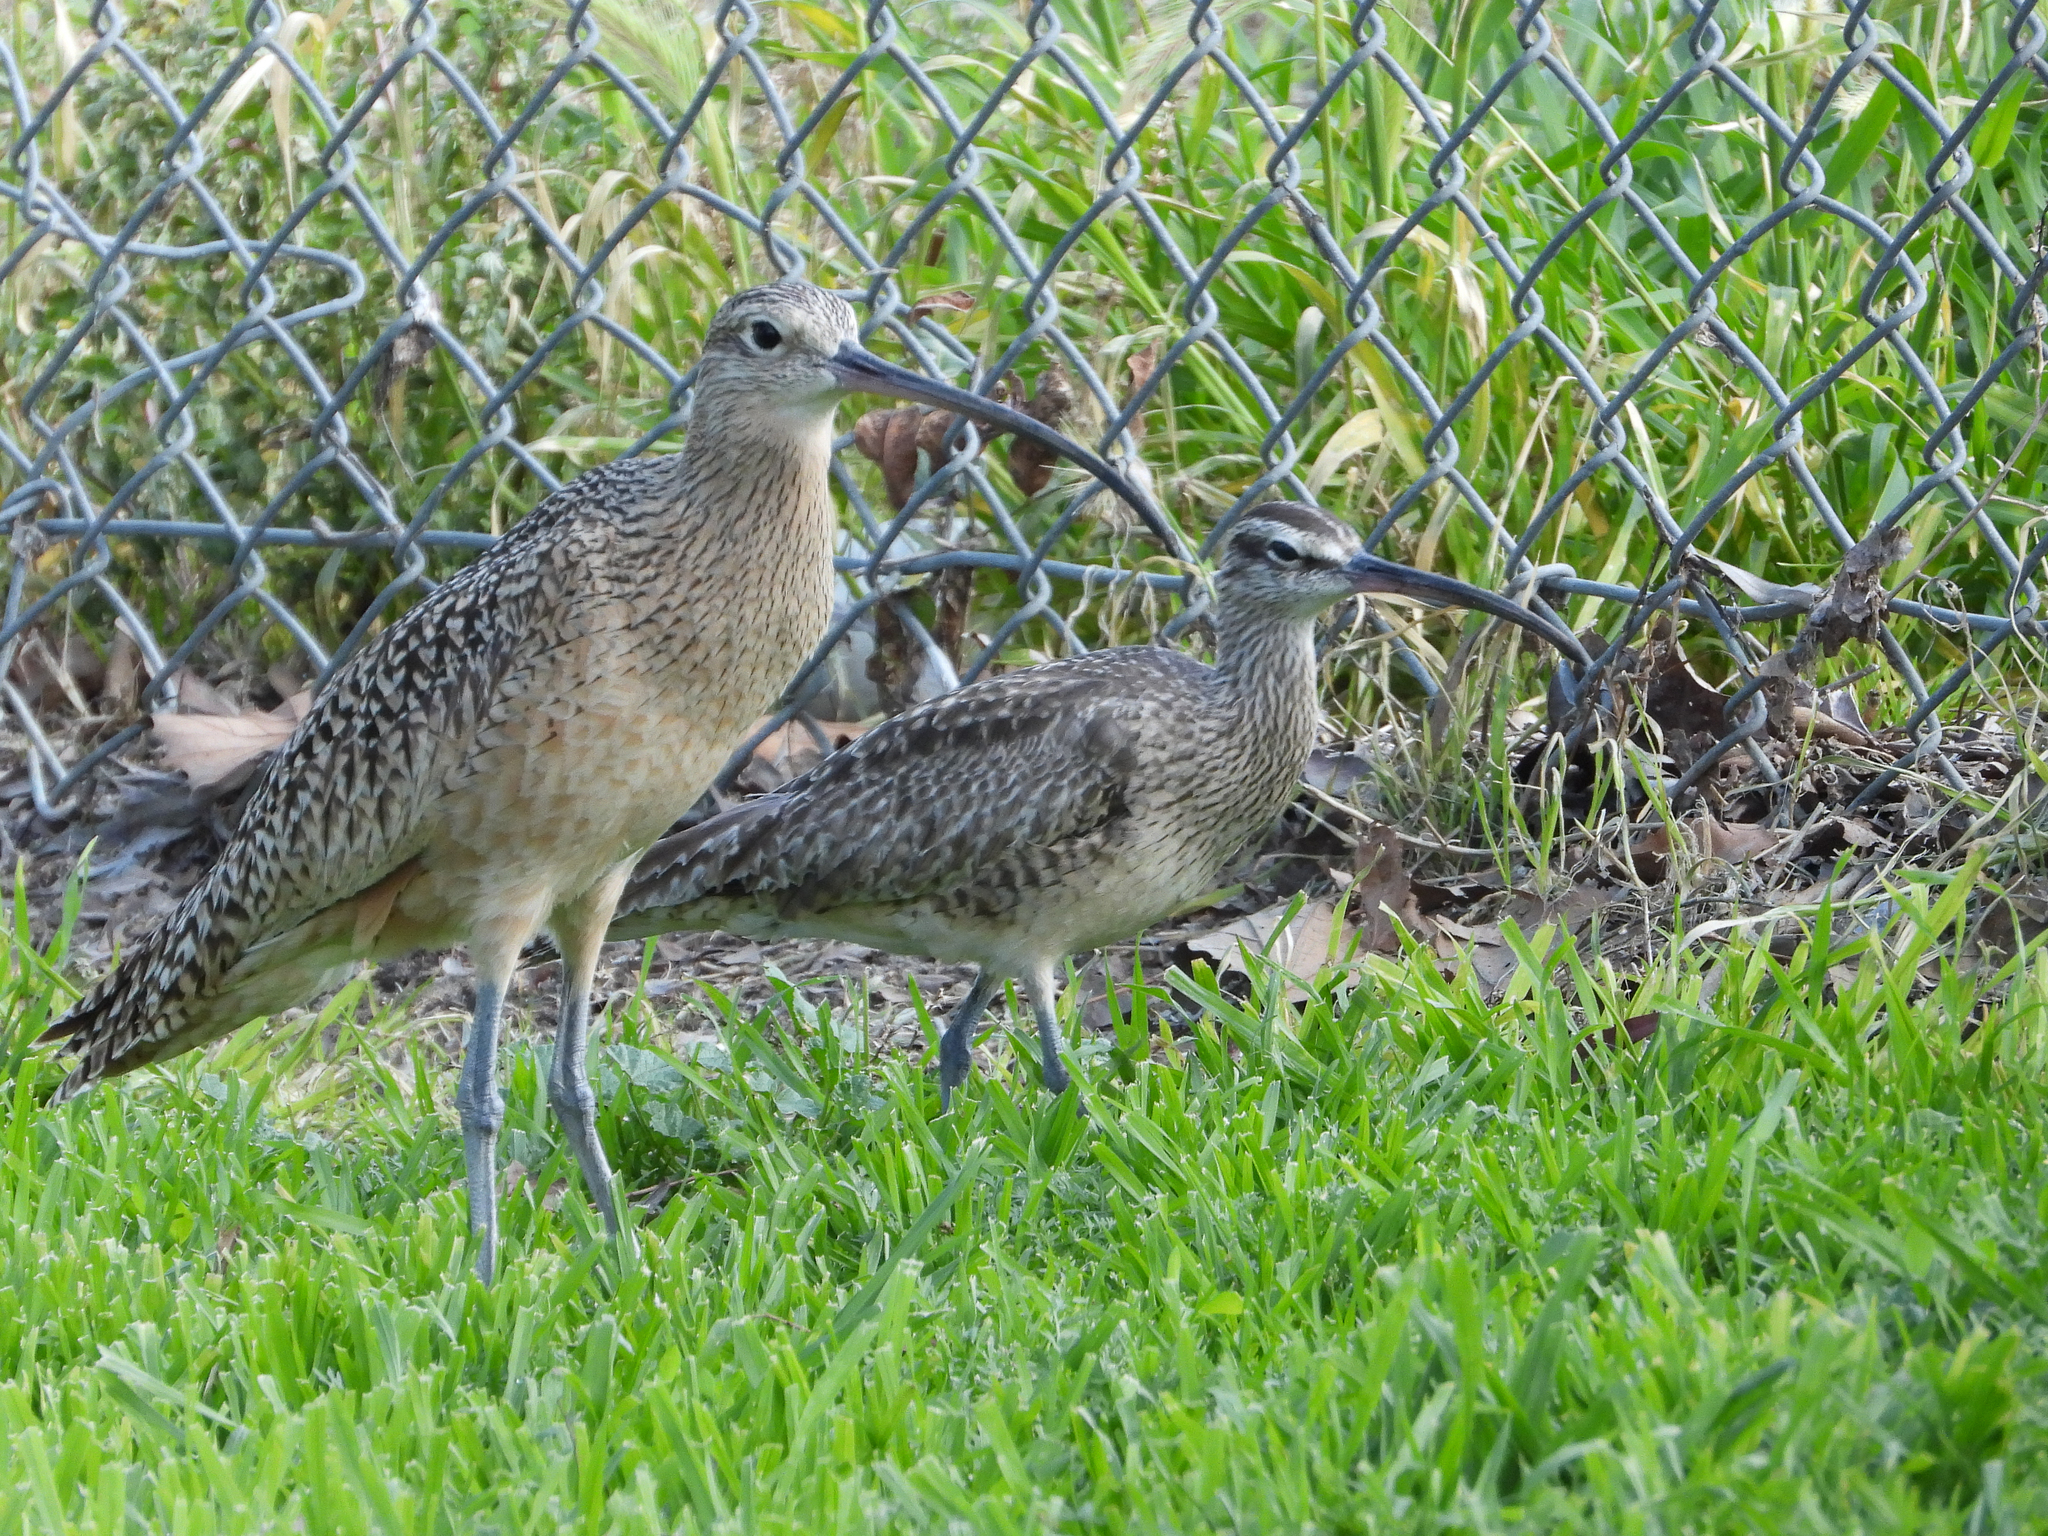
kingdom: Animalia
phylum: Chordata
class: Aves
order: Charadriiformes
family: Scolopacidae
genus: Numenius
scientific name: Numenius americanus
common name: Long-billed curlew
